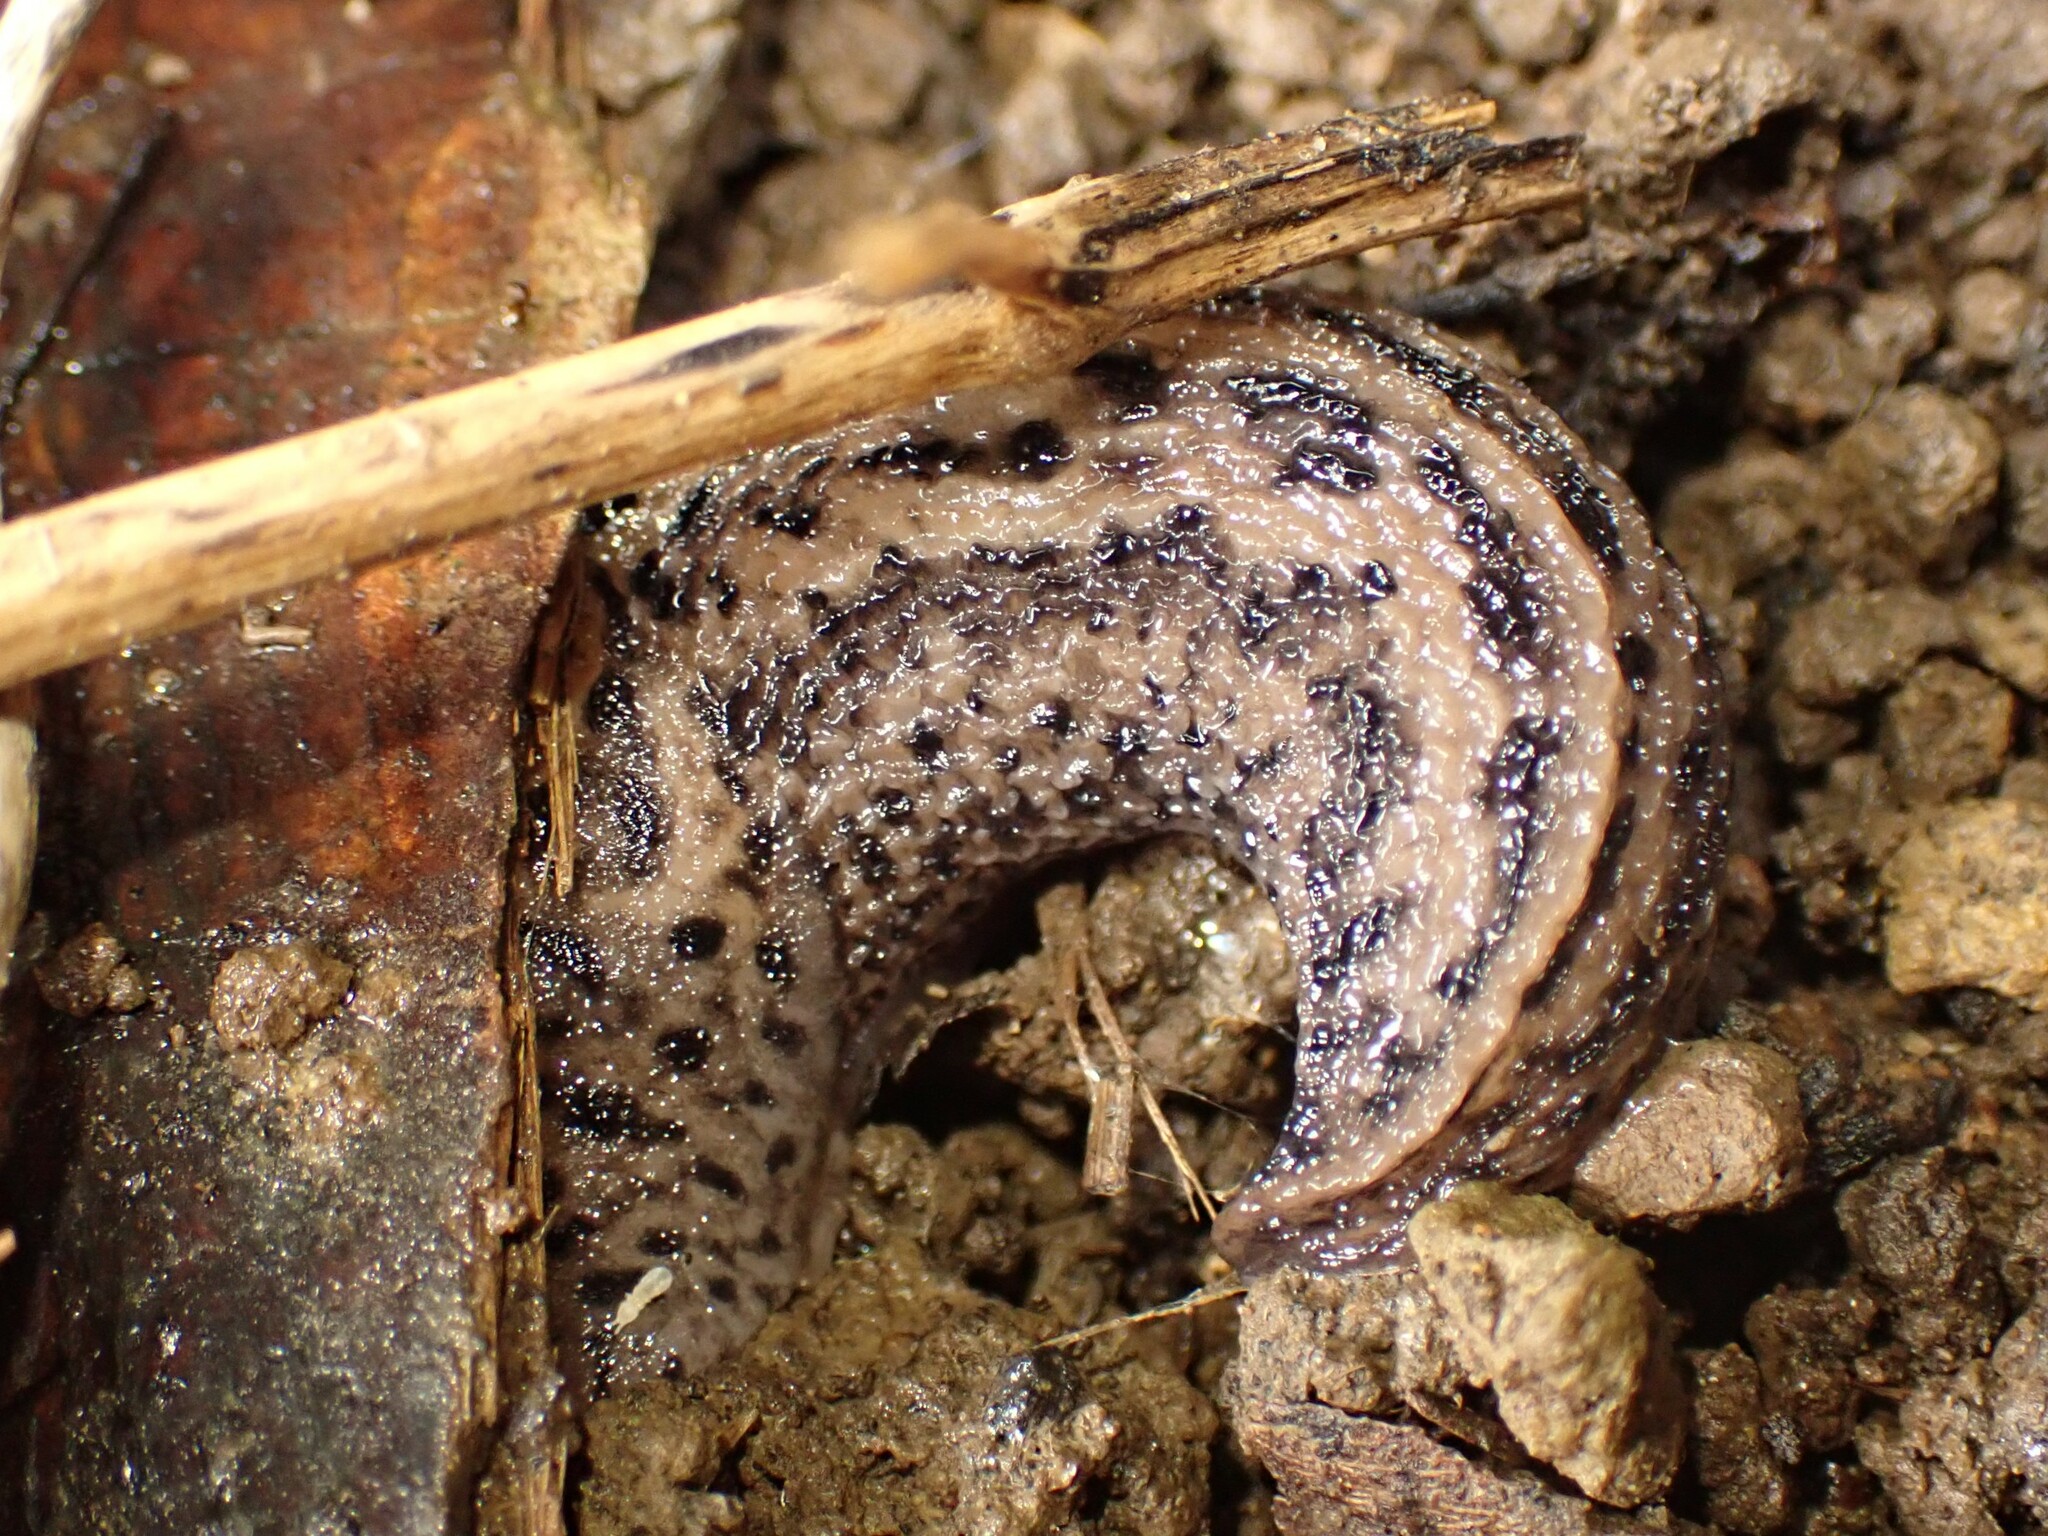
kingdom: Animalia
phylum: Mollusca
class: Gastropoda
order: Stylommatophora
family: Limacidae
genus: Limax
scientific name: Limax maximus
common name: Great grey slug
